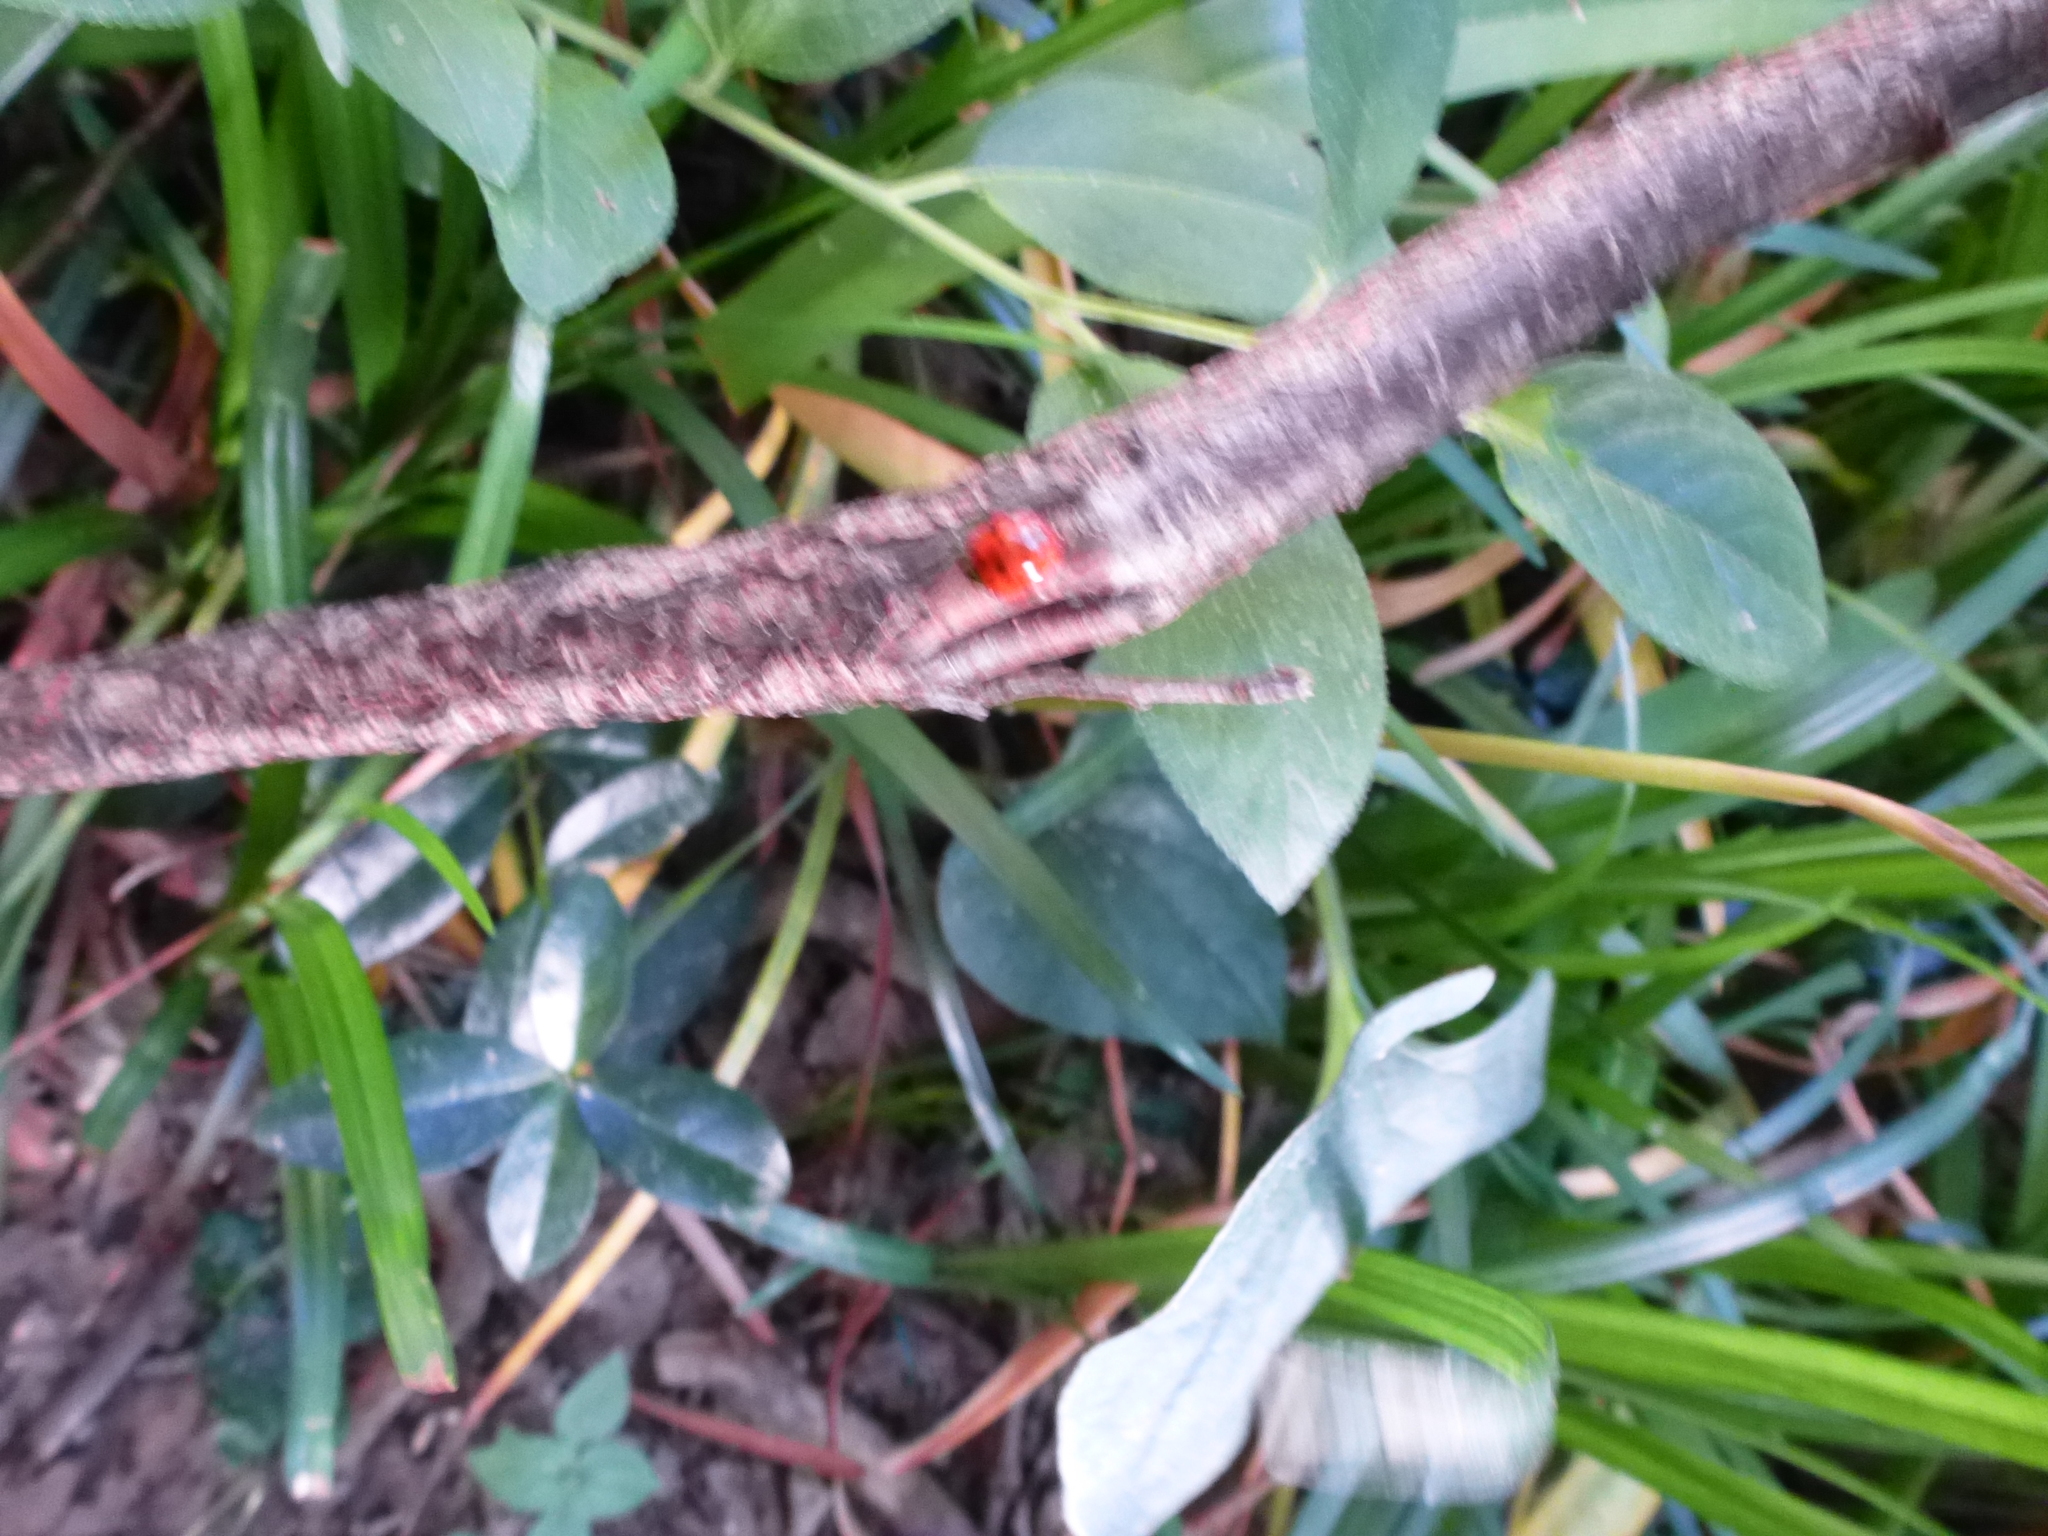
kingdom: Animalia
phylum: Arthropoda
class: Insecta
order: Coleoptera
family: Coccinellidae
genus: Harmonia
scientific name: Harmonia axyridis
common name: Harlequin ladybird
